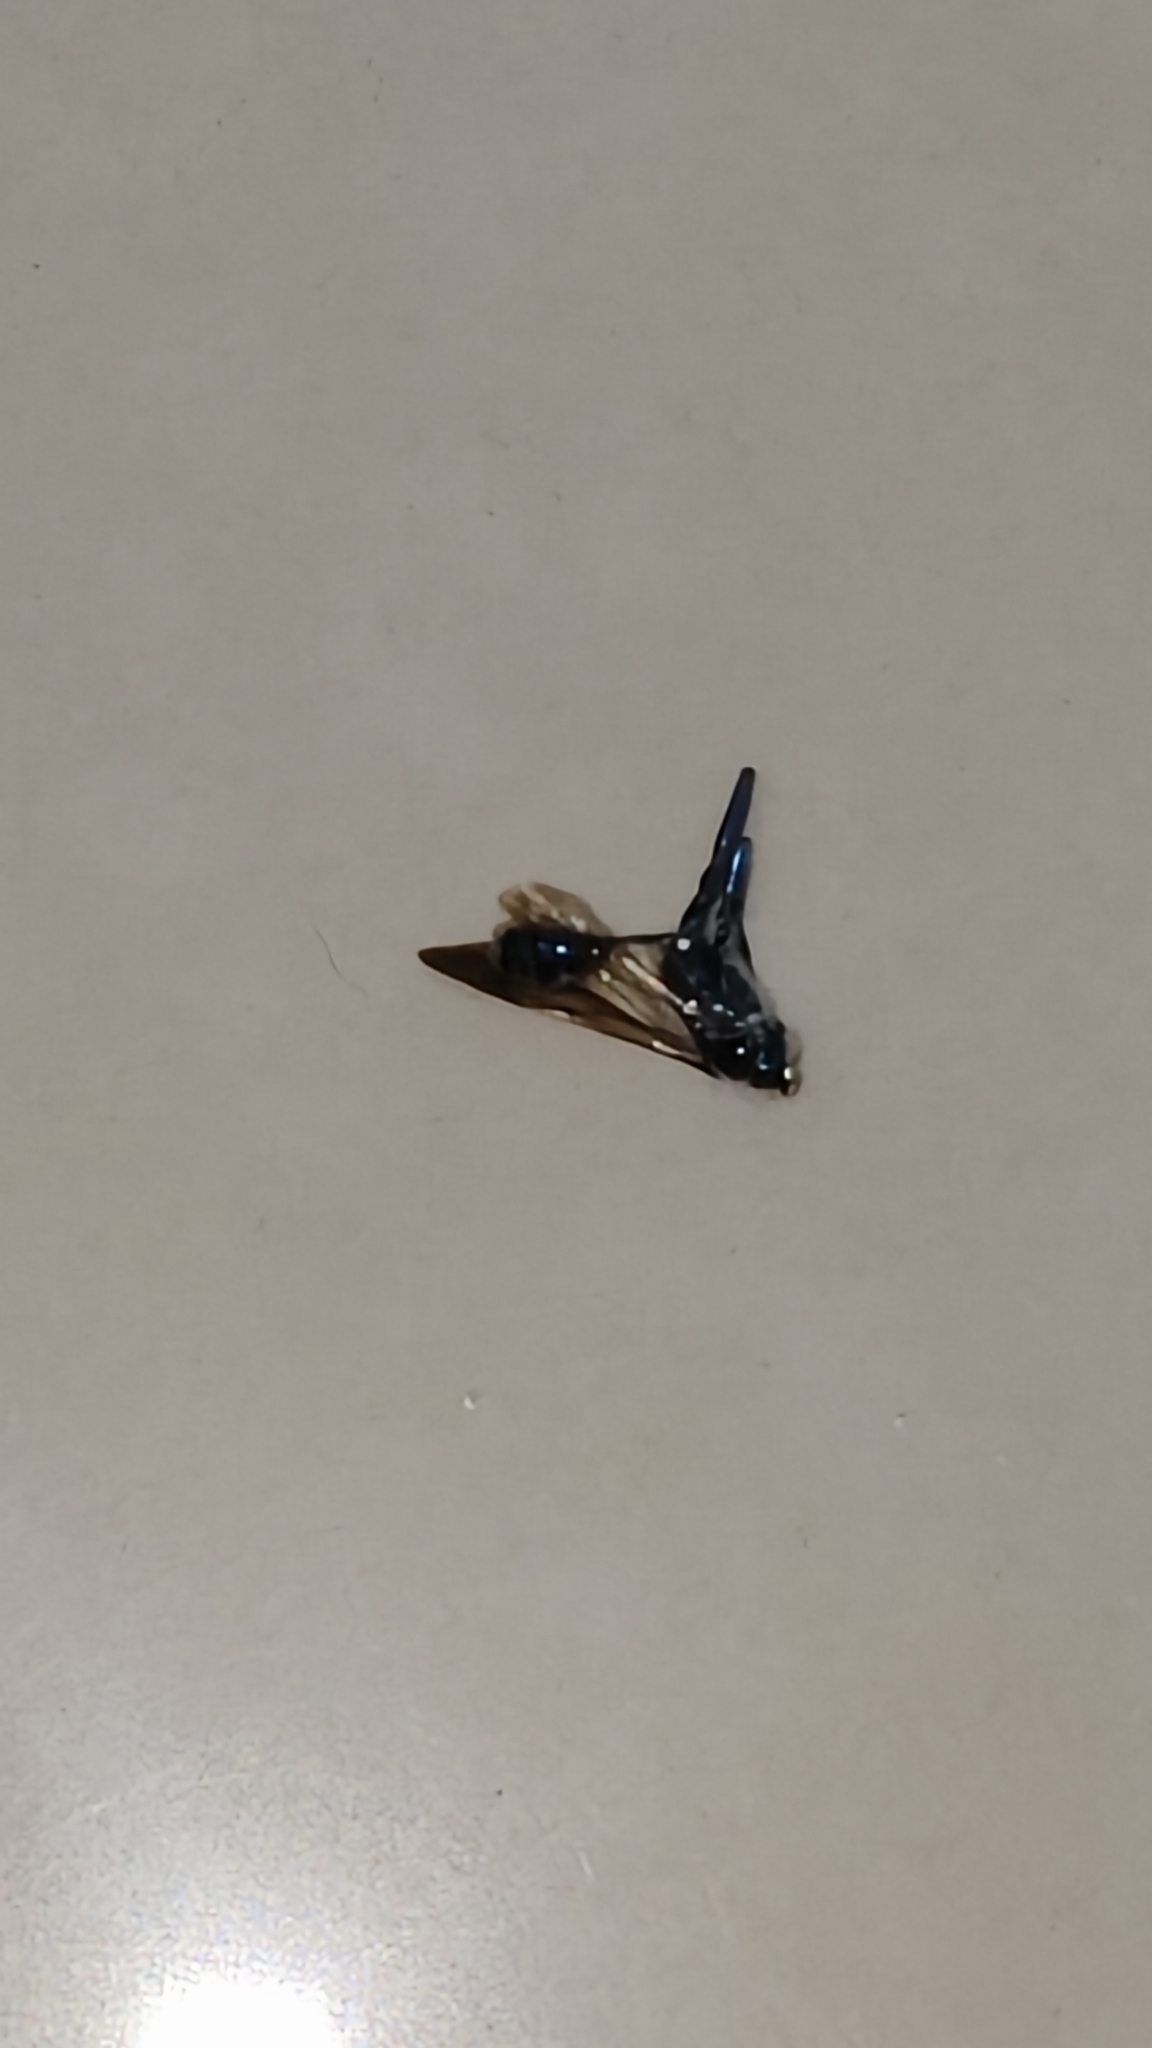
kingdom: Animalia
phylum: Arthropoda
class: Insecta
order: Hymenoptera
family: Sphecidae
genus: Chalybion
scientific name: Chalybion bengalense
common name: Mud dauber
